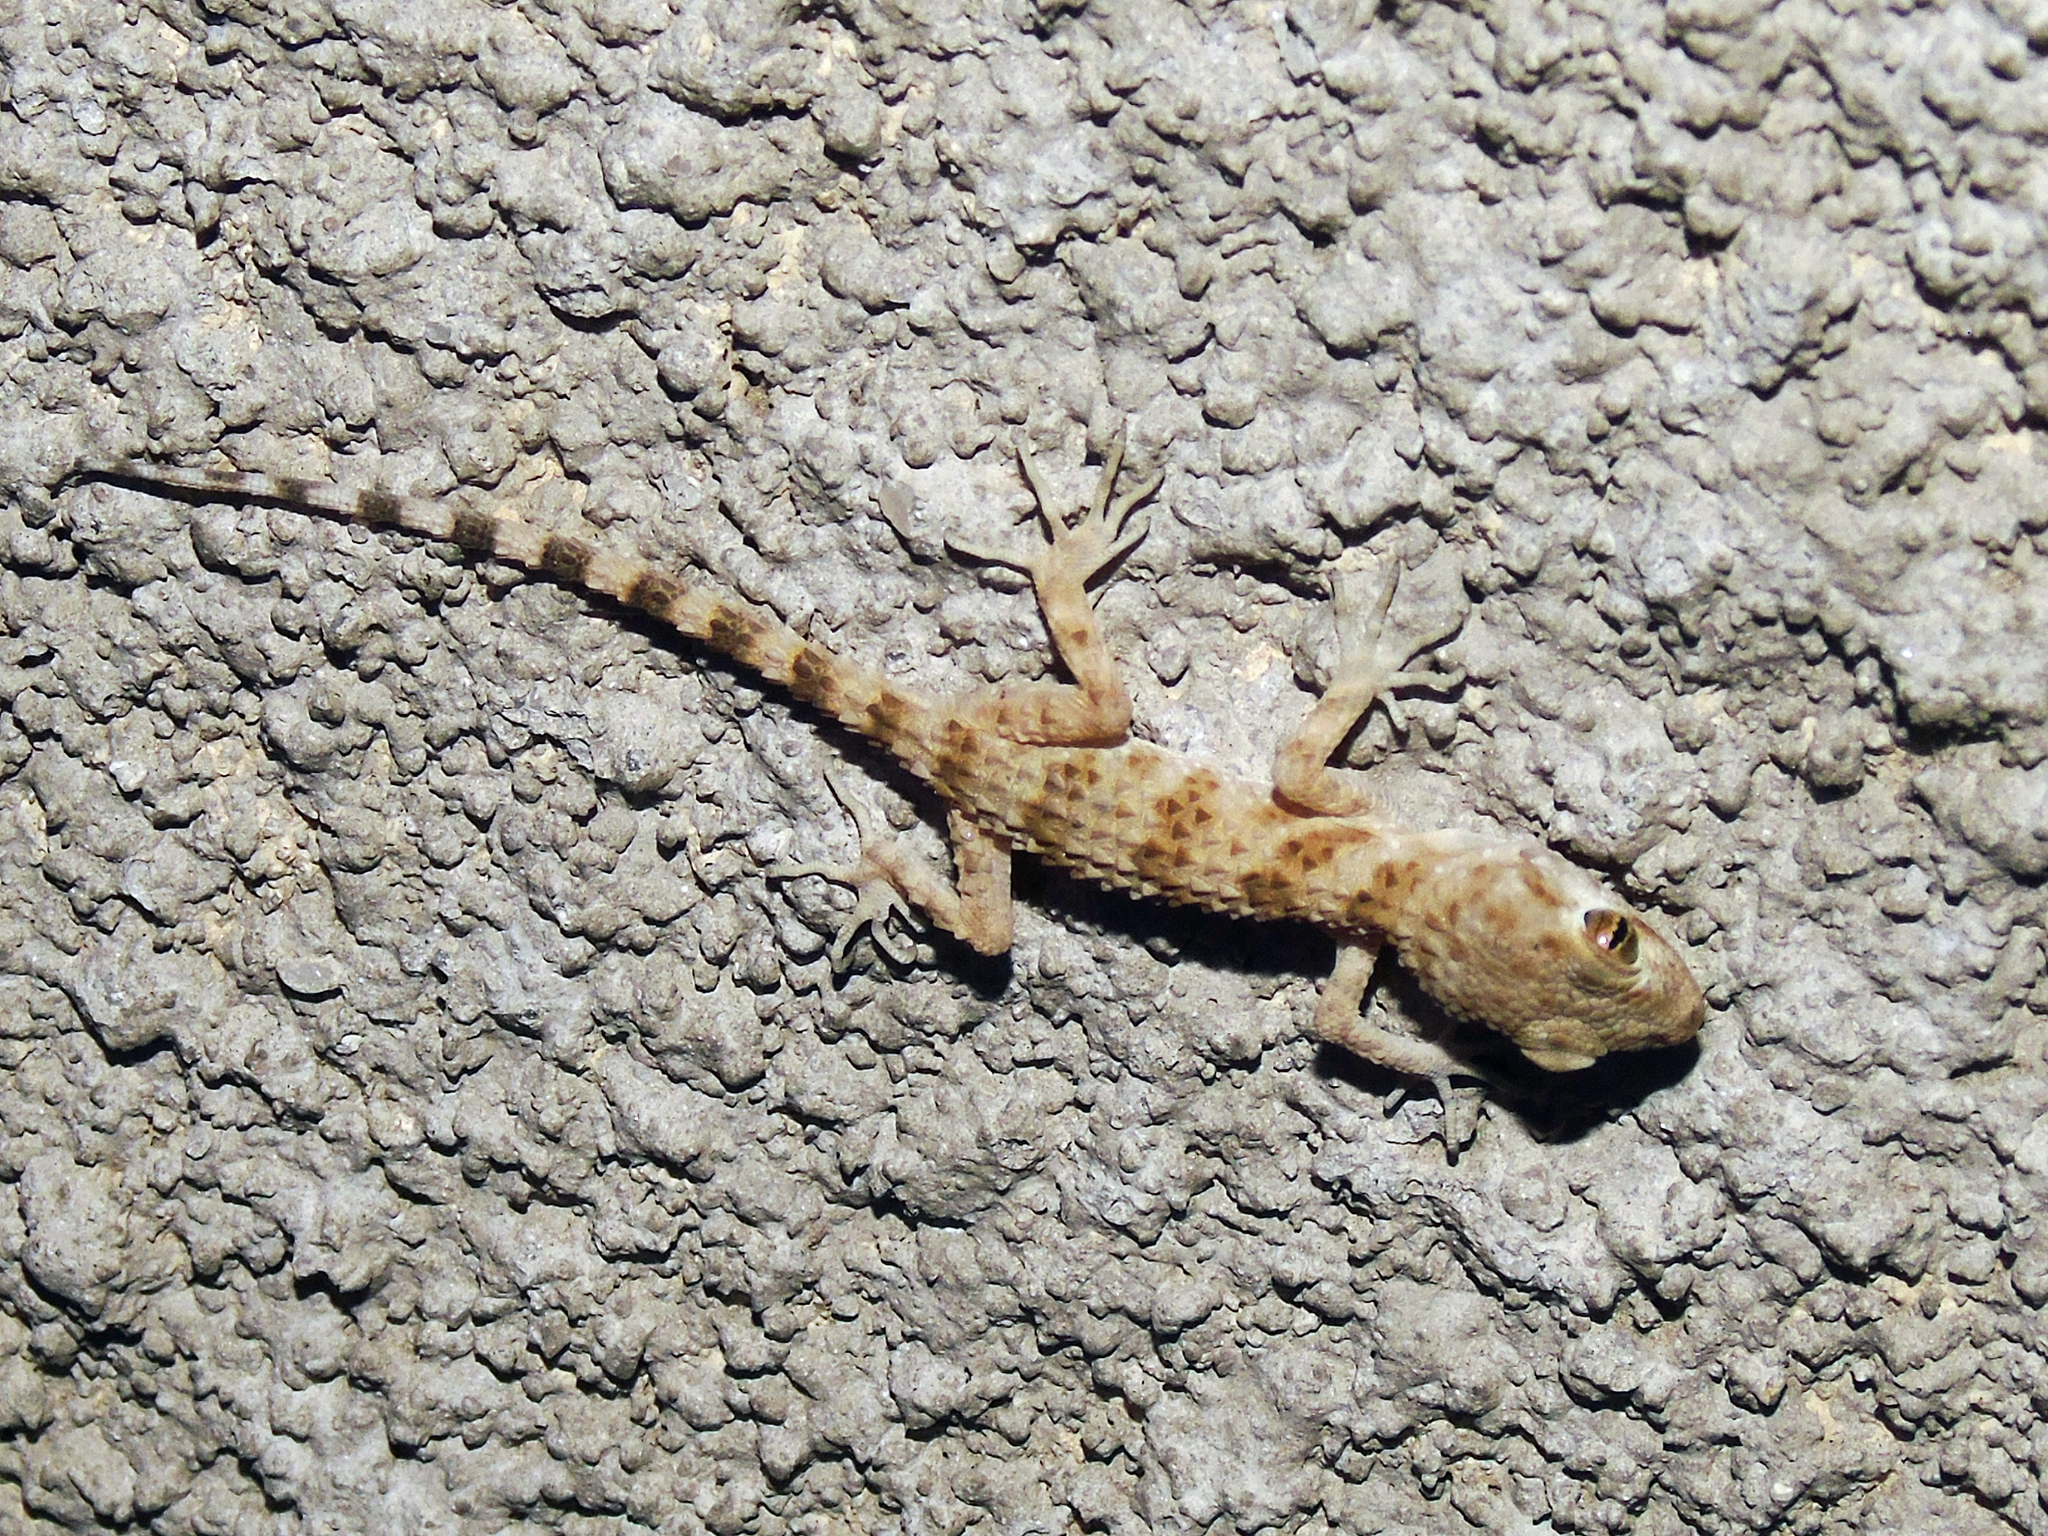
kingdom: Animalia
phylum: Chordata
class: Squamata
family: Gekkonidae
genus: Tenuidactylus
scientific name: Tenuidactylus caspius
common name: Caspian bent-toed gecko
